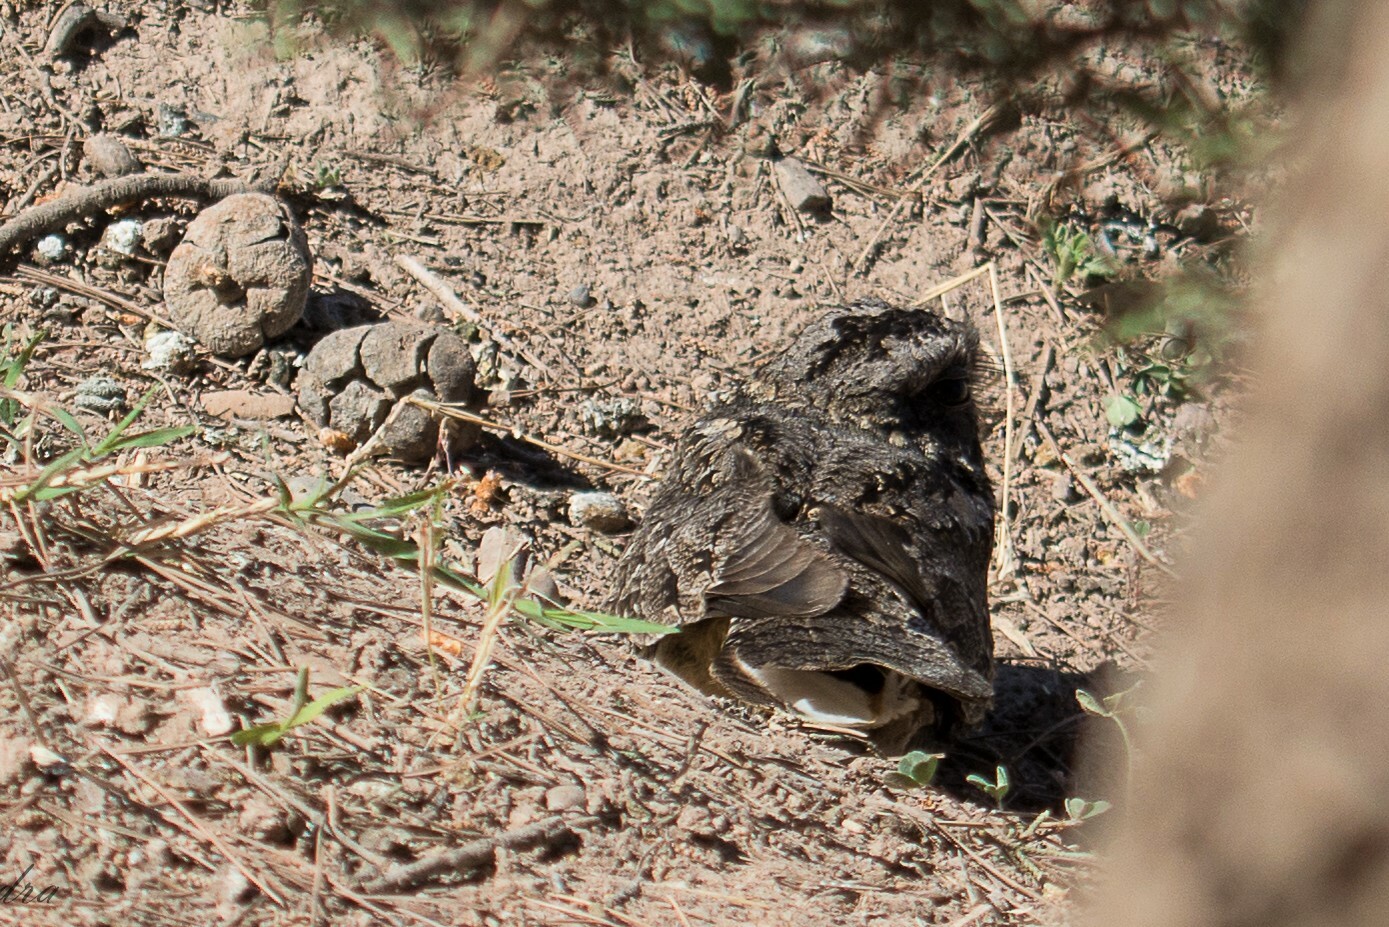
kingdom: Animalia
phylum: Chordata
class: Aves
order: Caprimulgiformes
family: Caprimulgidae
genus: Systellura
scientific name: Systellura longirostris
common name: Band-winged nightjar
